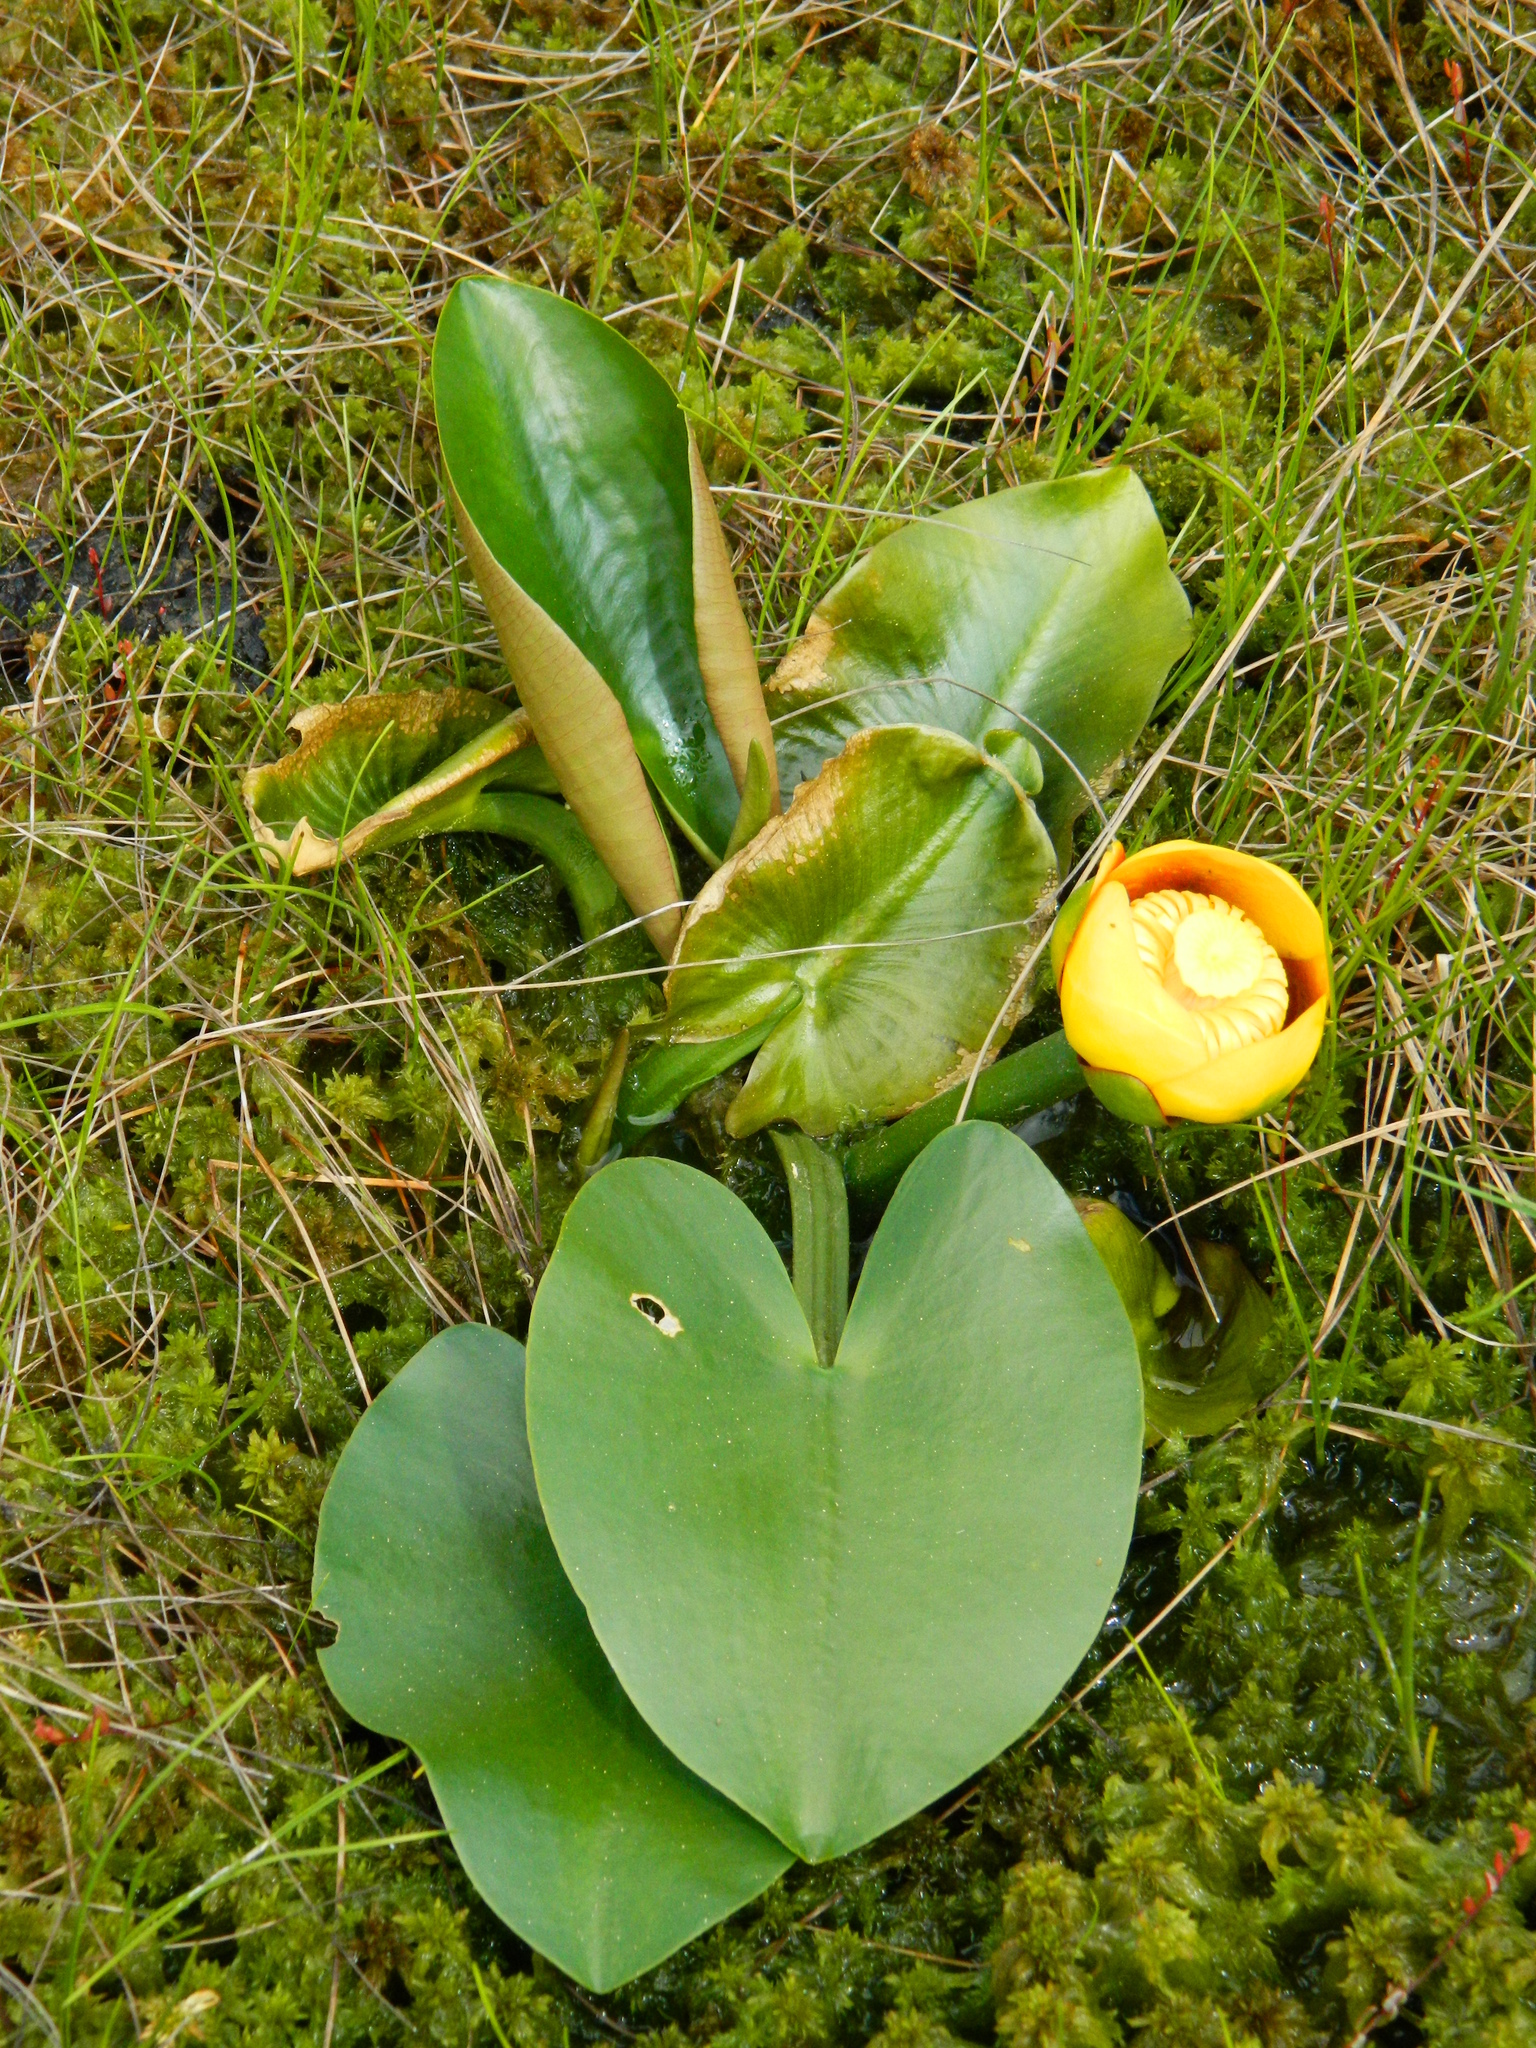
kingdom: Plantae
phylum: Tracheophyta
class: Magnoliopsida
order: Nymphaeales
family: Nymphaeaceae
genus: Nuphar
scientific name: Nuphar variegata
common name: Beaver-root
